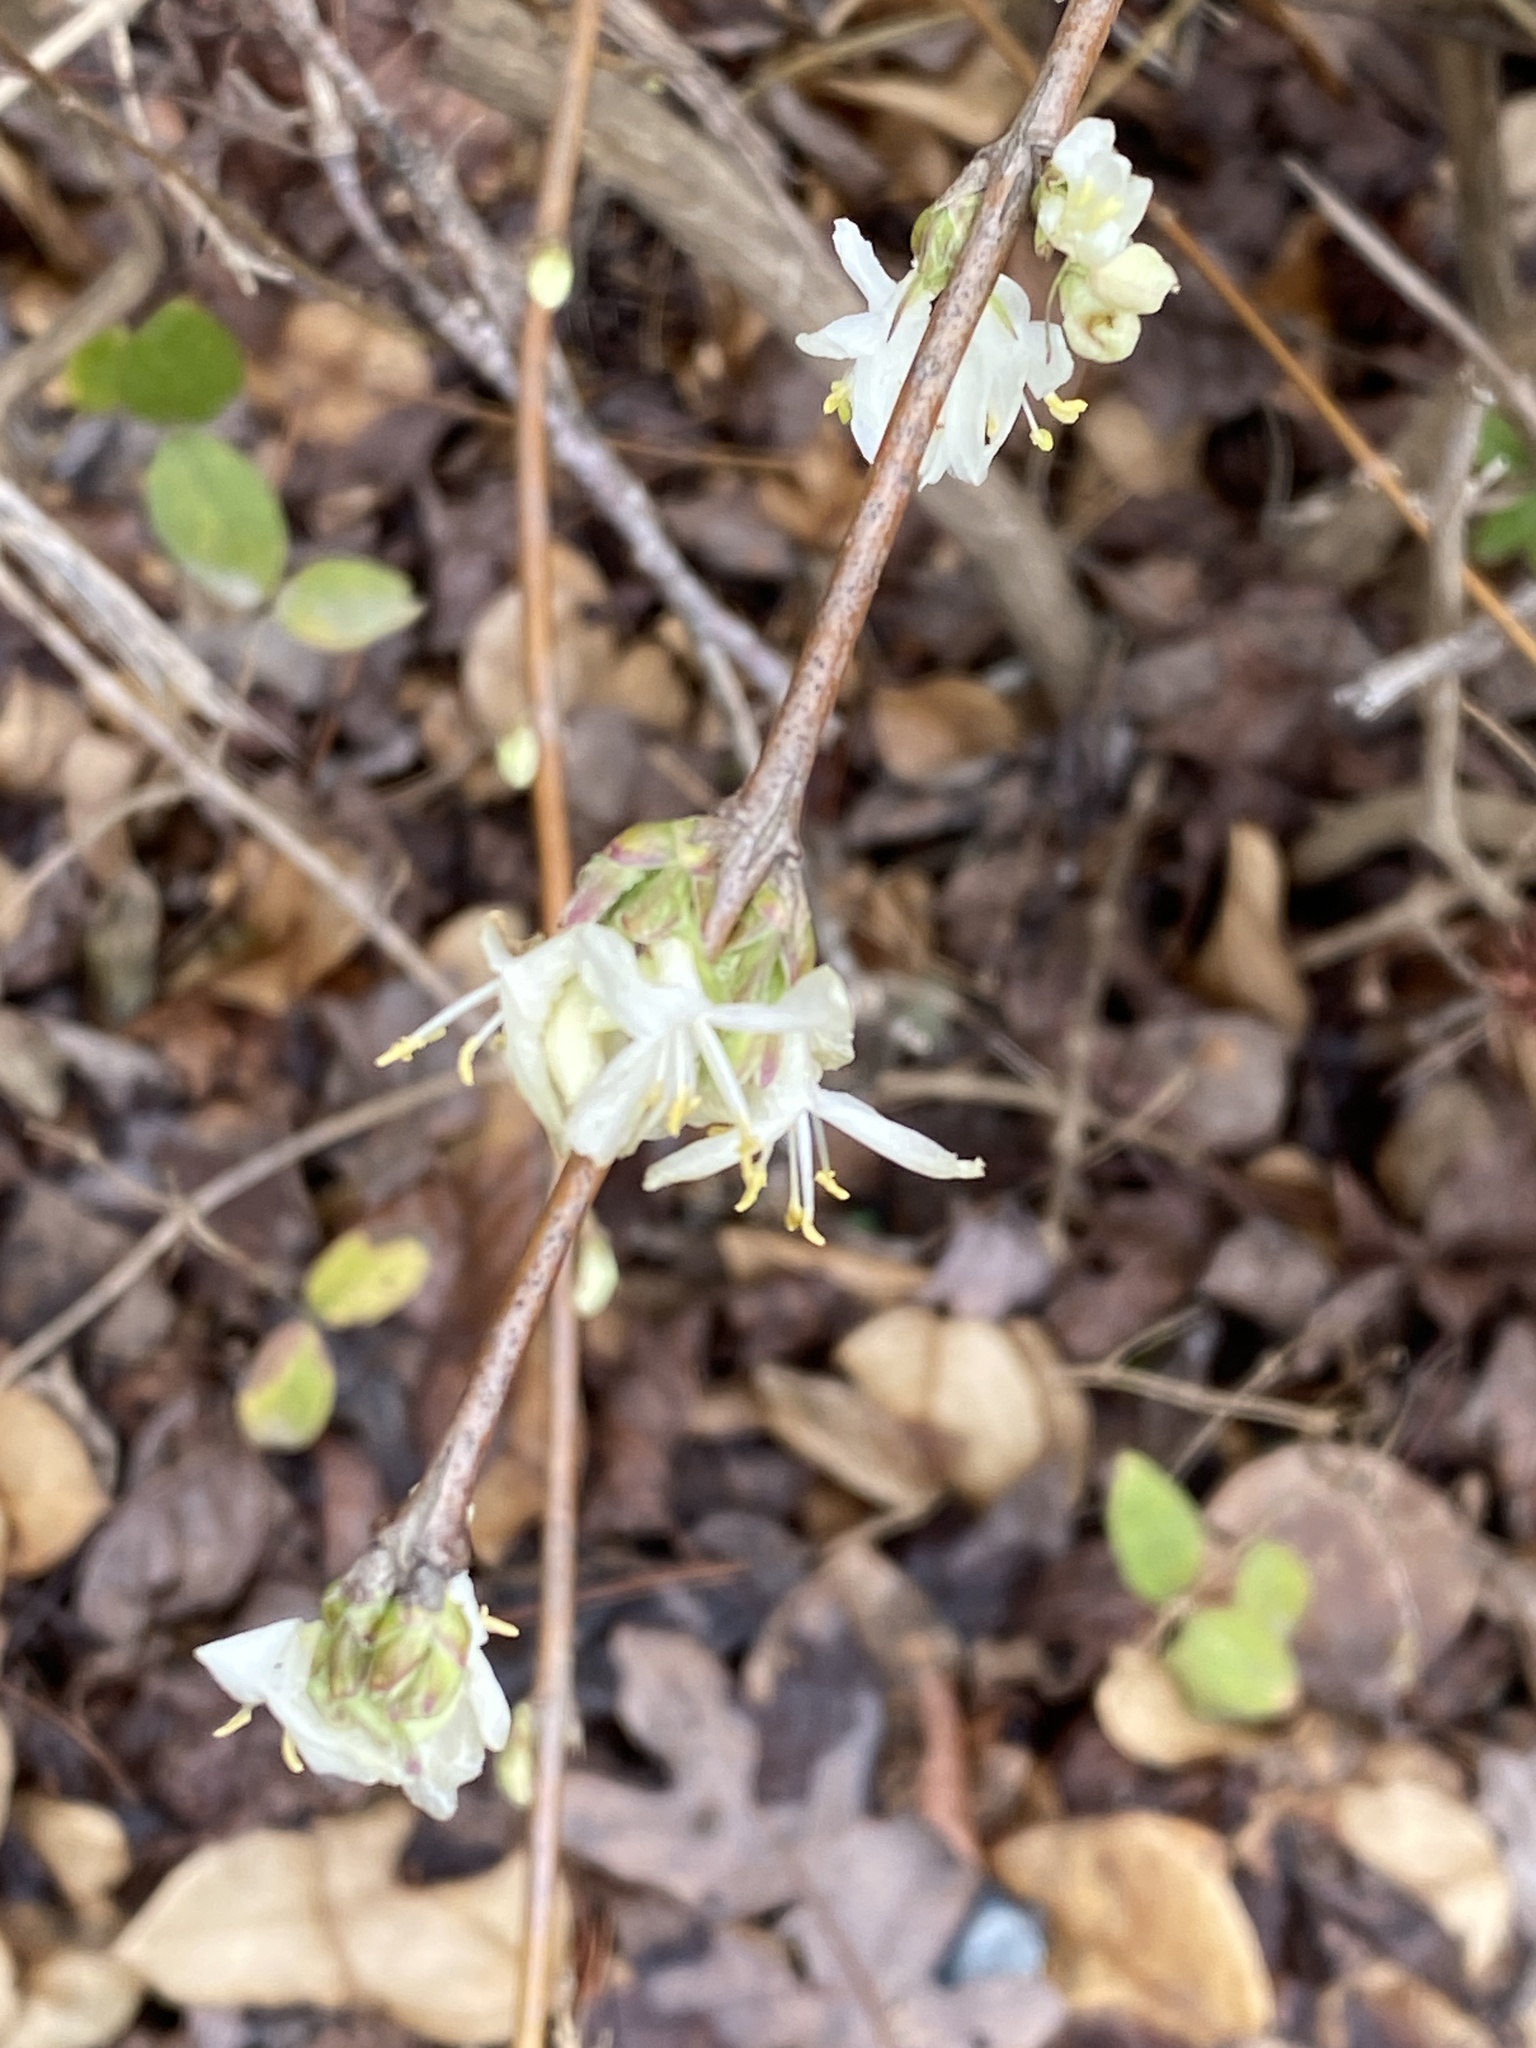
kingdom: Plantae
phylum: Tracheophyta
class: Magnoliopsida
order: Dipsacales
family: Caprifoliaceae
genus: Lonicera
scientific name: Lonicera fragrantissima
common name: Fragrant honeysuckle
